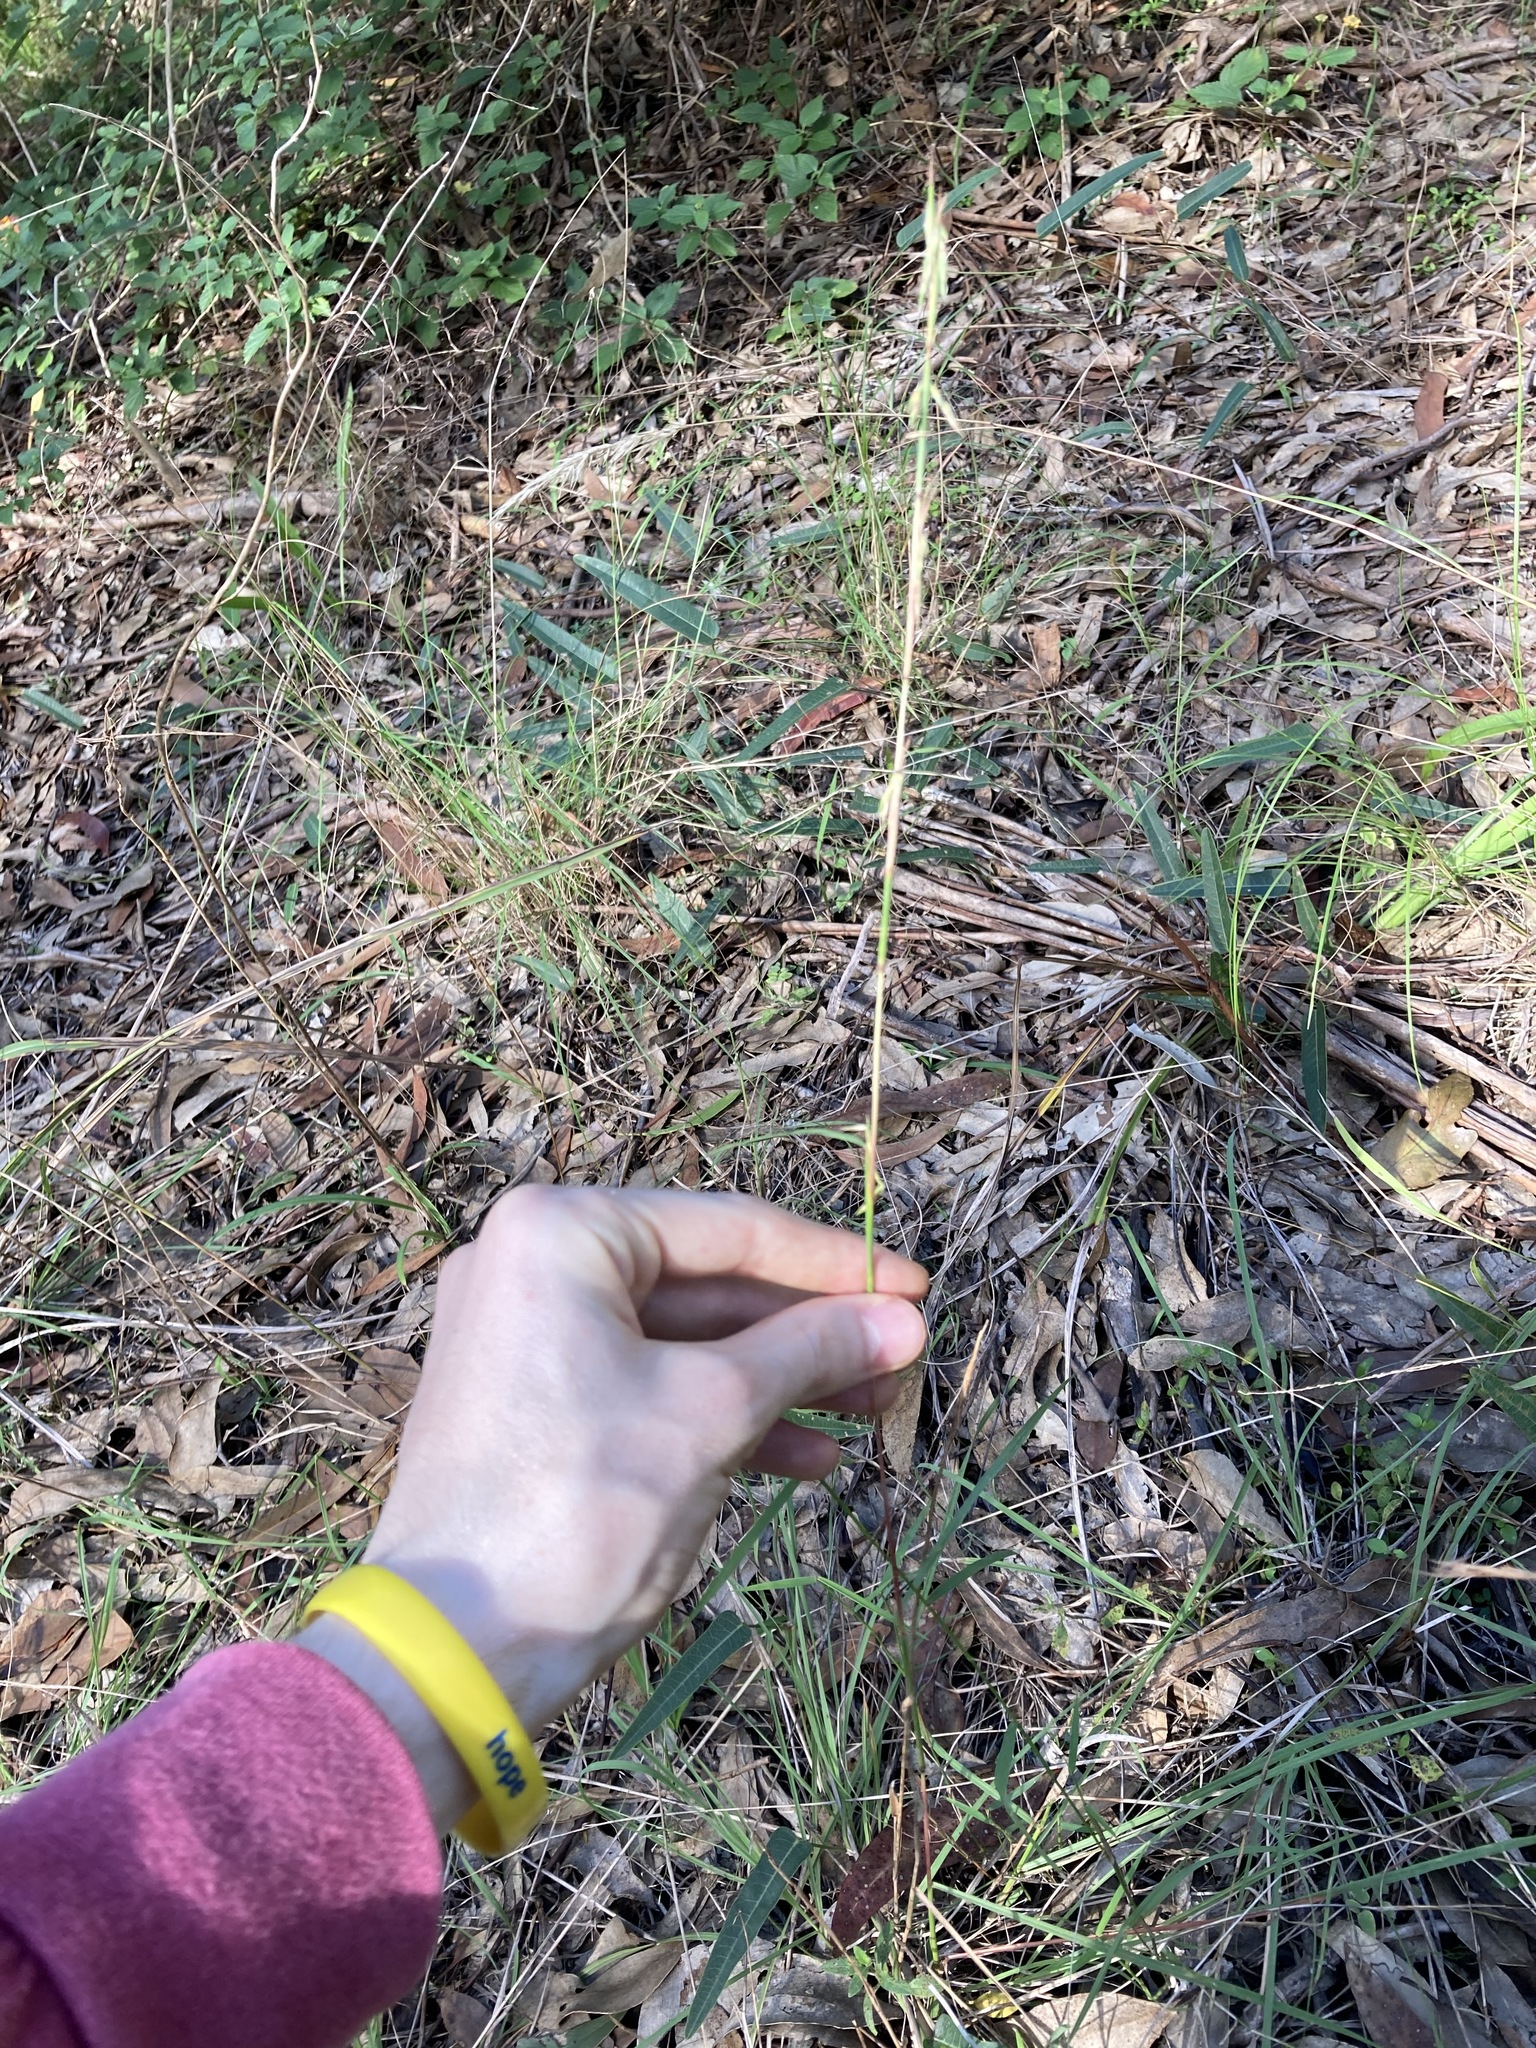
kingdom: Plantae
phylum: Tracheophyta
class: Liliopsida
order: Poales
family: Poaceae
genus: Cymbopogon
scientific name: Cymbopogon refractus
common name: Barbwire grass
